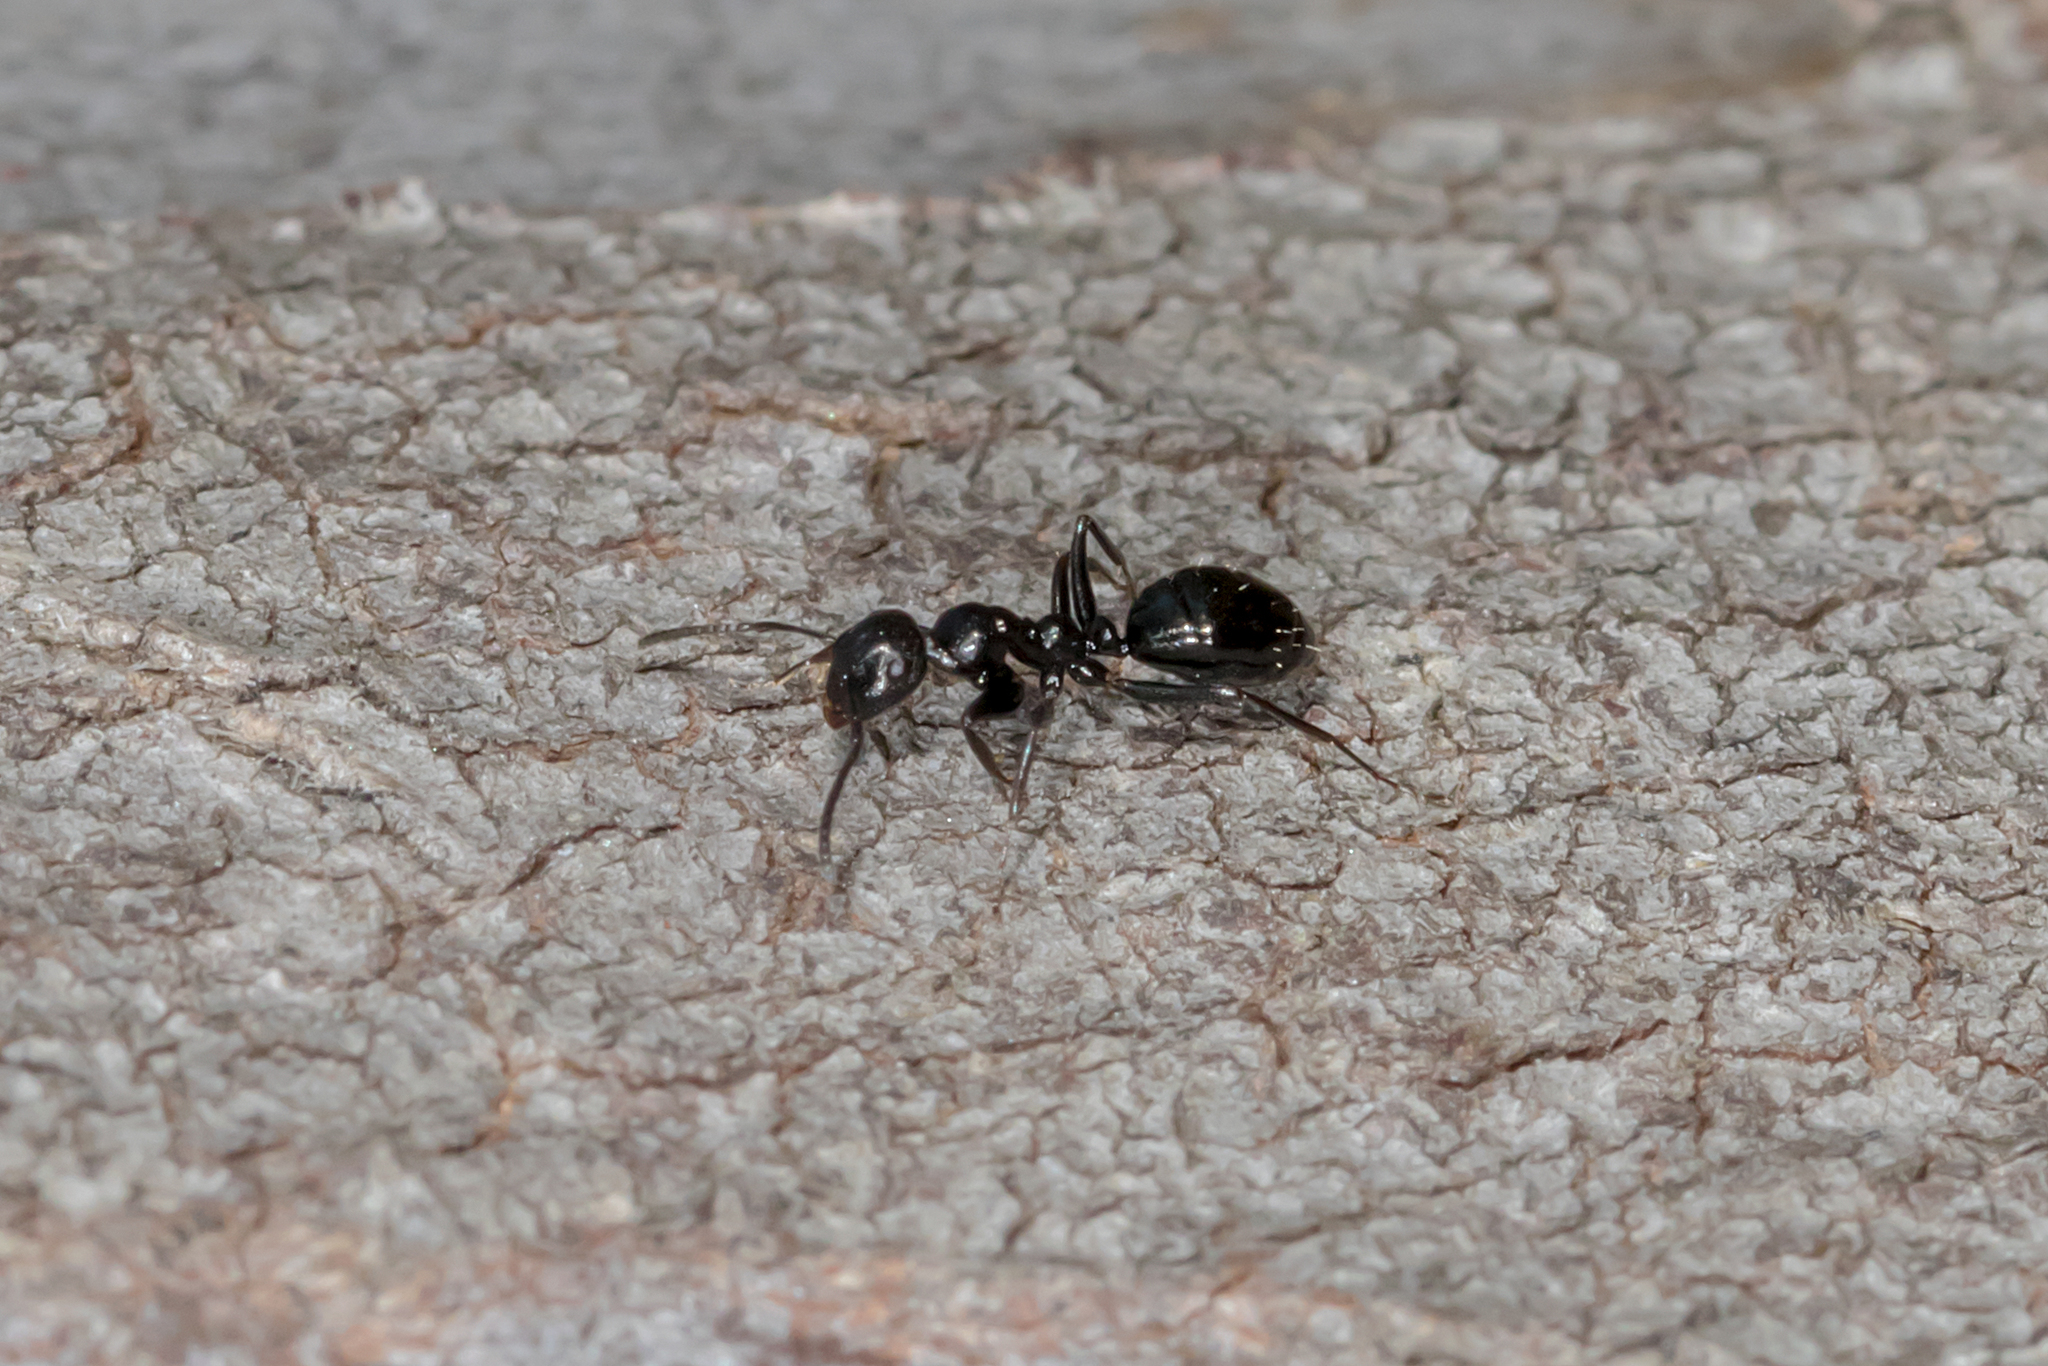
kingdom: Animalia
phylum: Arthropoda
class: Insecta
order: Hymenoptera
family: Formicidae
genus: Colobopsis
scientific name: Colobopsis gasseri
